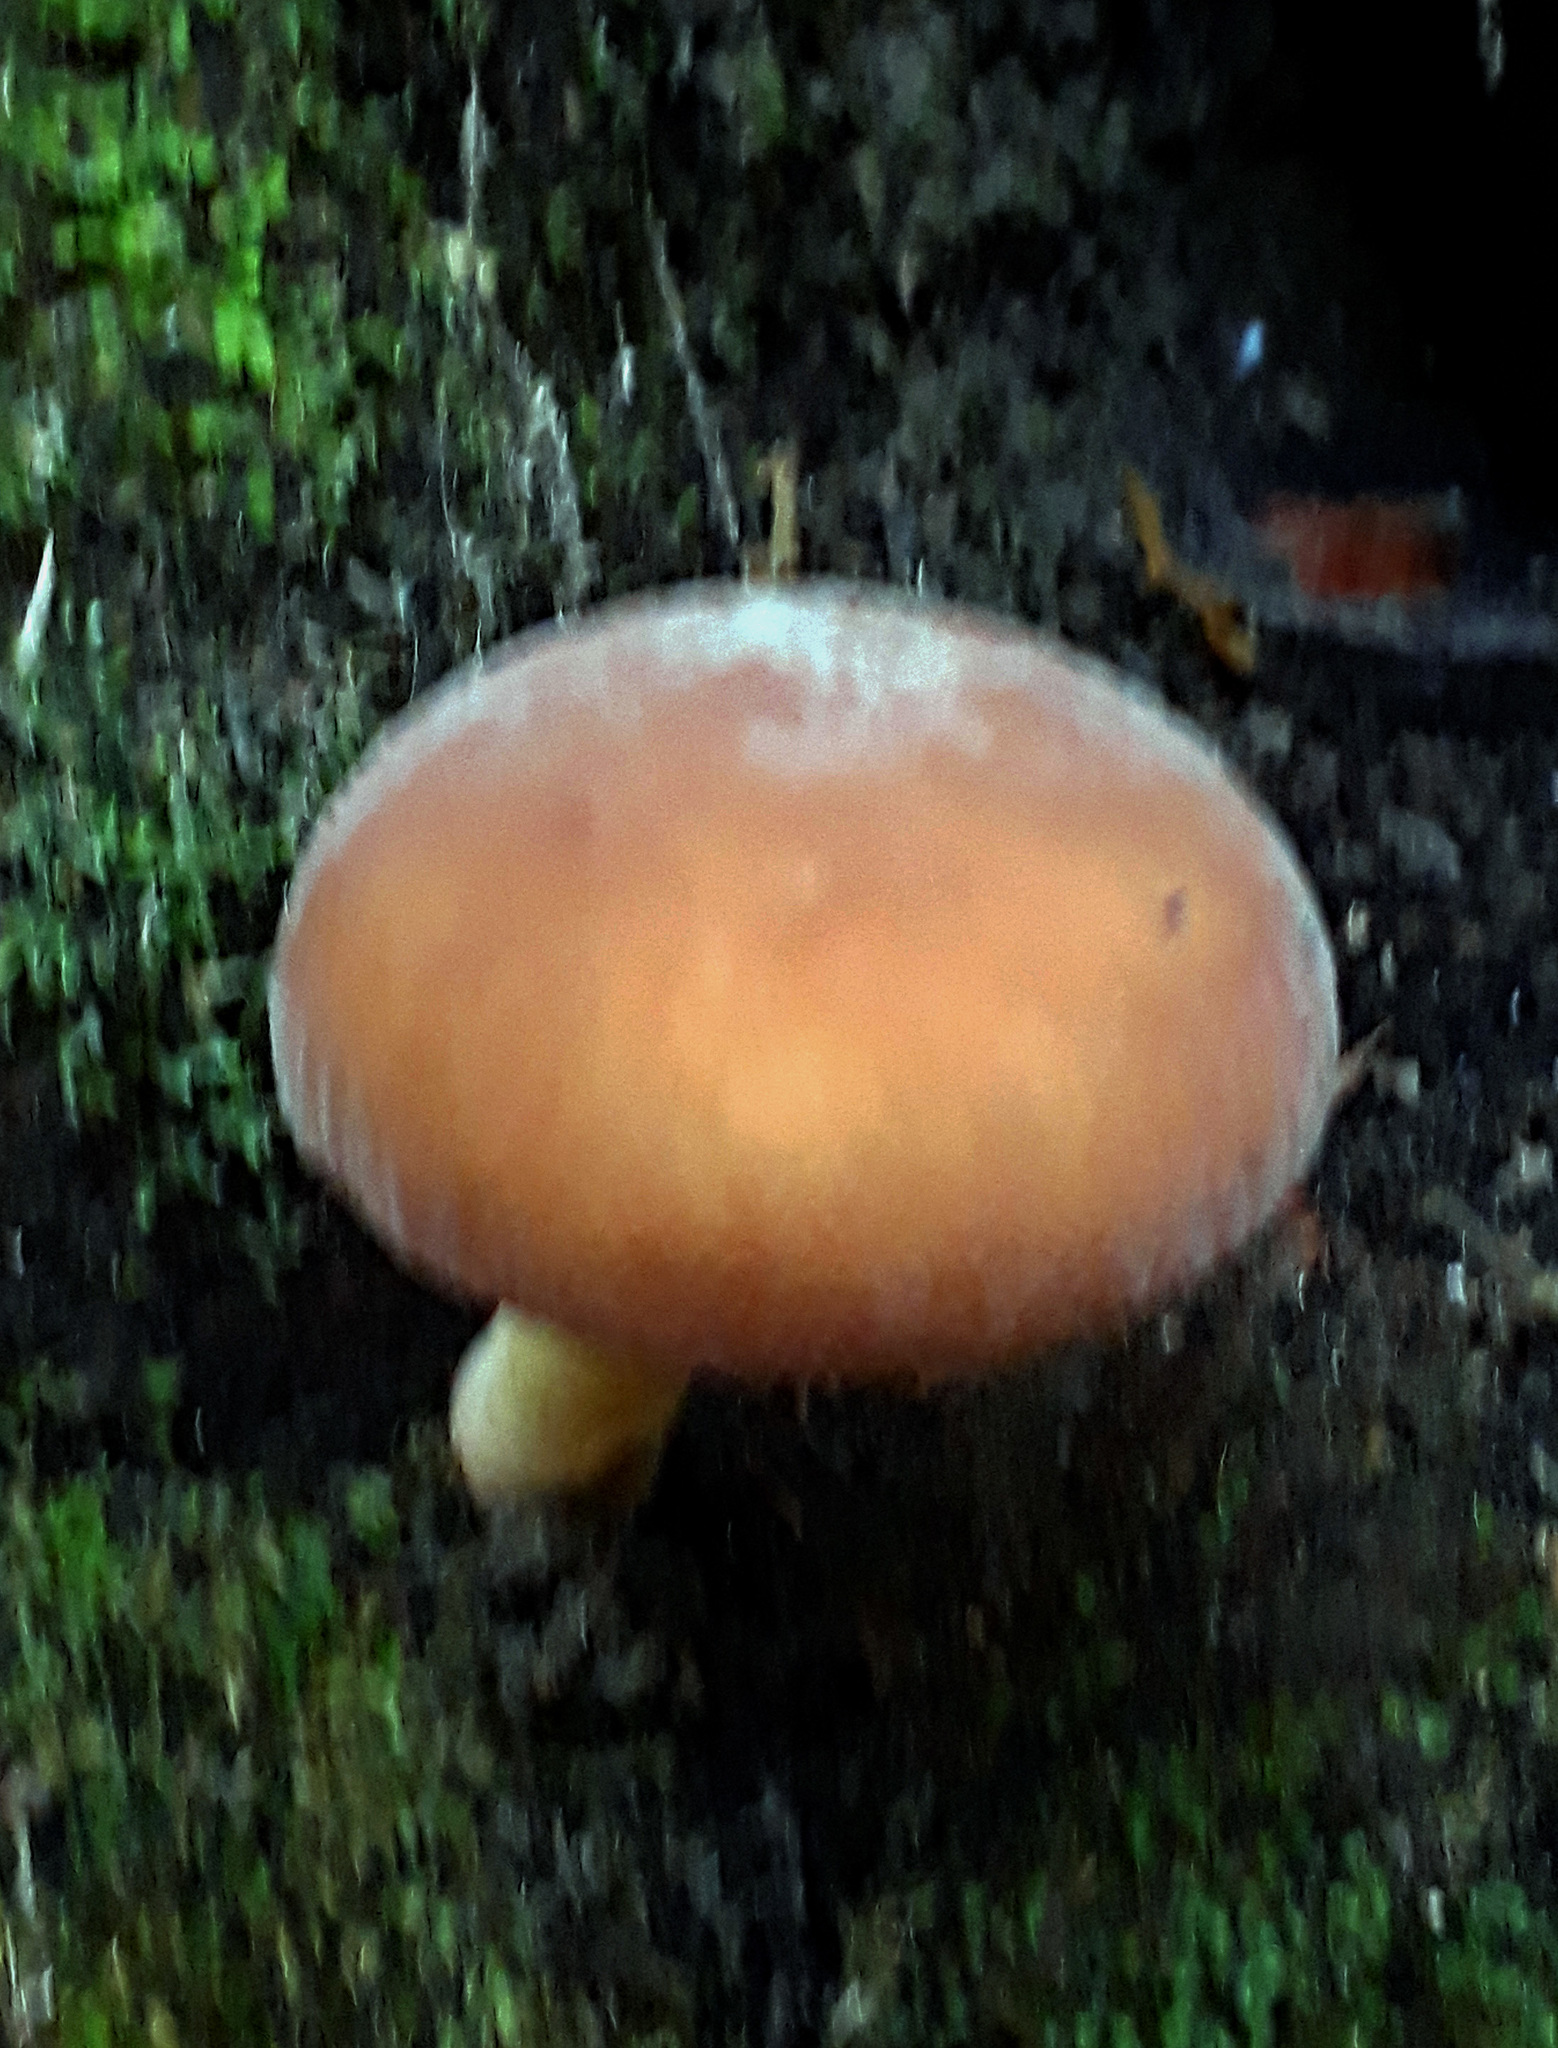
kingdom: Fungi
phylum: Basidiomycota
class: Agaricomycetes
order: Agaricales
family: Tubariaceae
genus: Cyclocybe
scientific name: Cyclocybe parasitica
